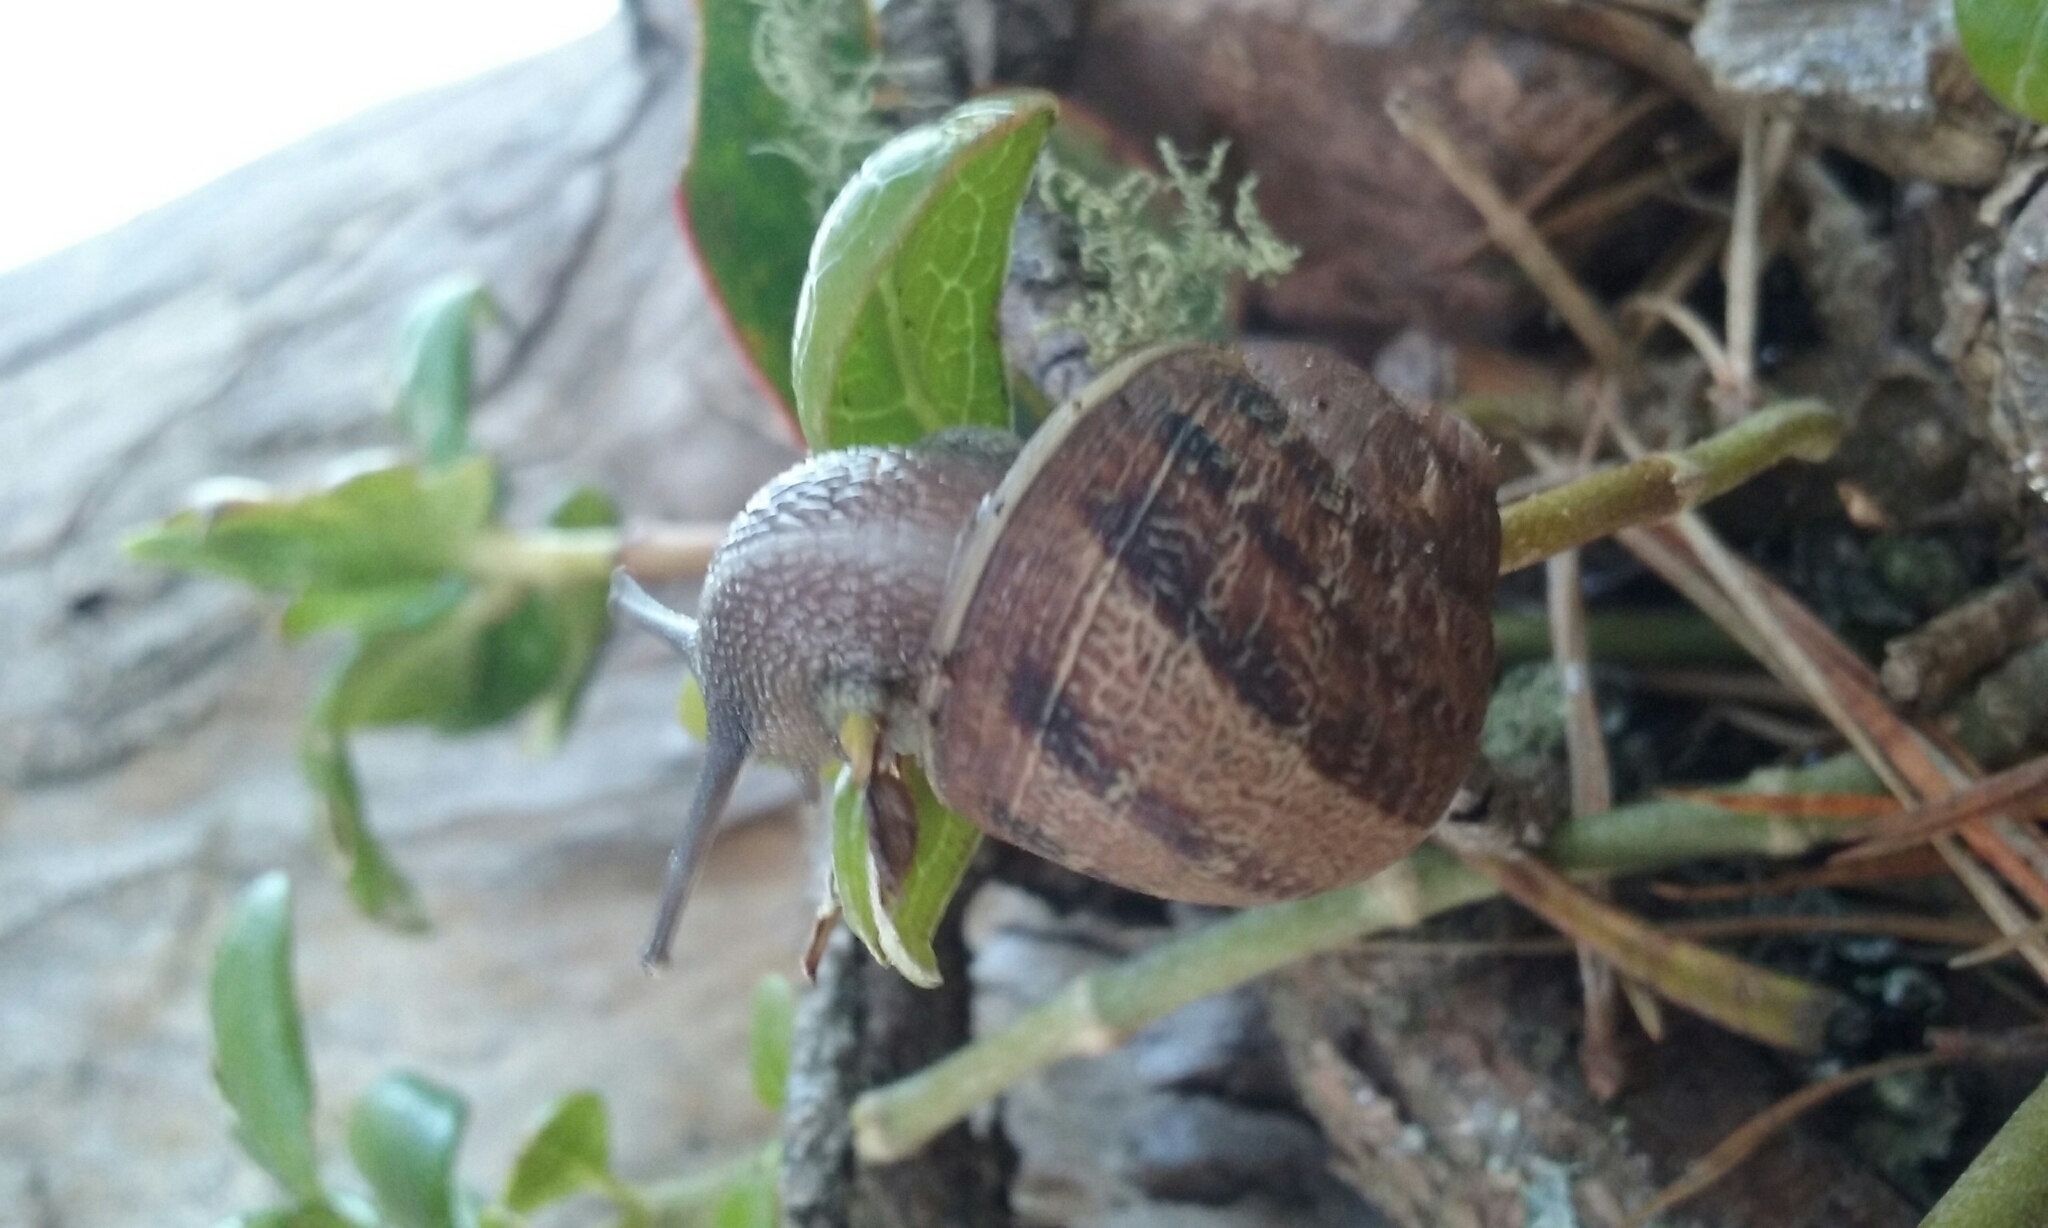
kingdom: Animalia
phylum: Mollusca
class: Gastropoda
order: Stylommatophora
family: Helicidae
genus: Cornu
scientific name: Cornu aspersum
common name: Brown garden snail
